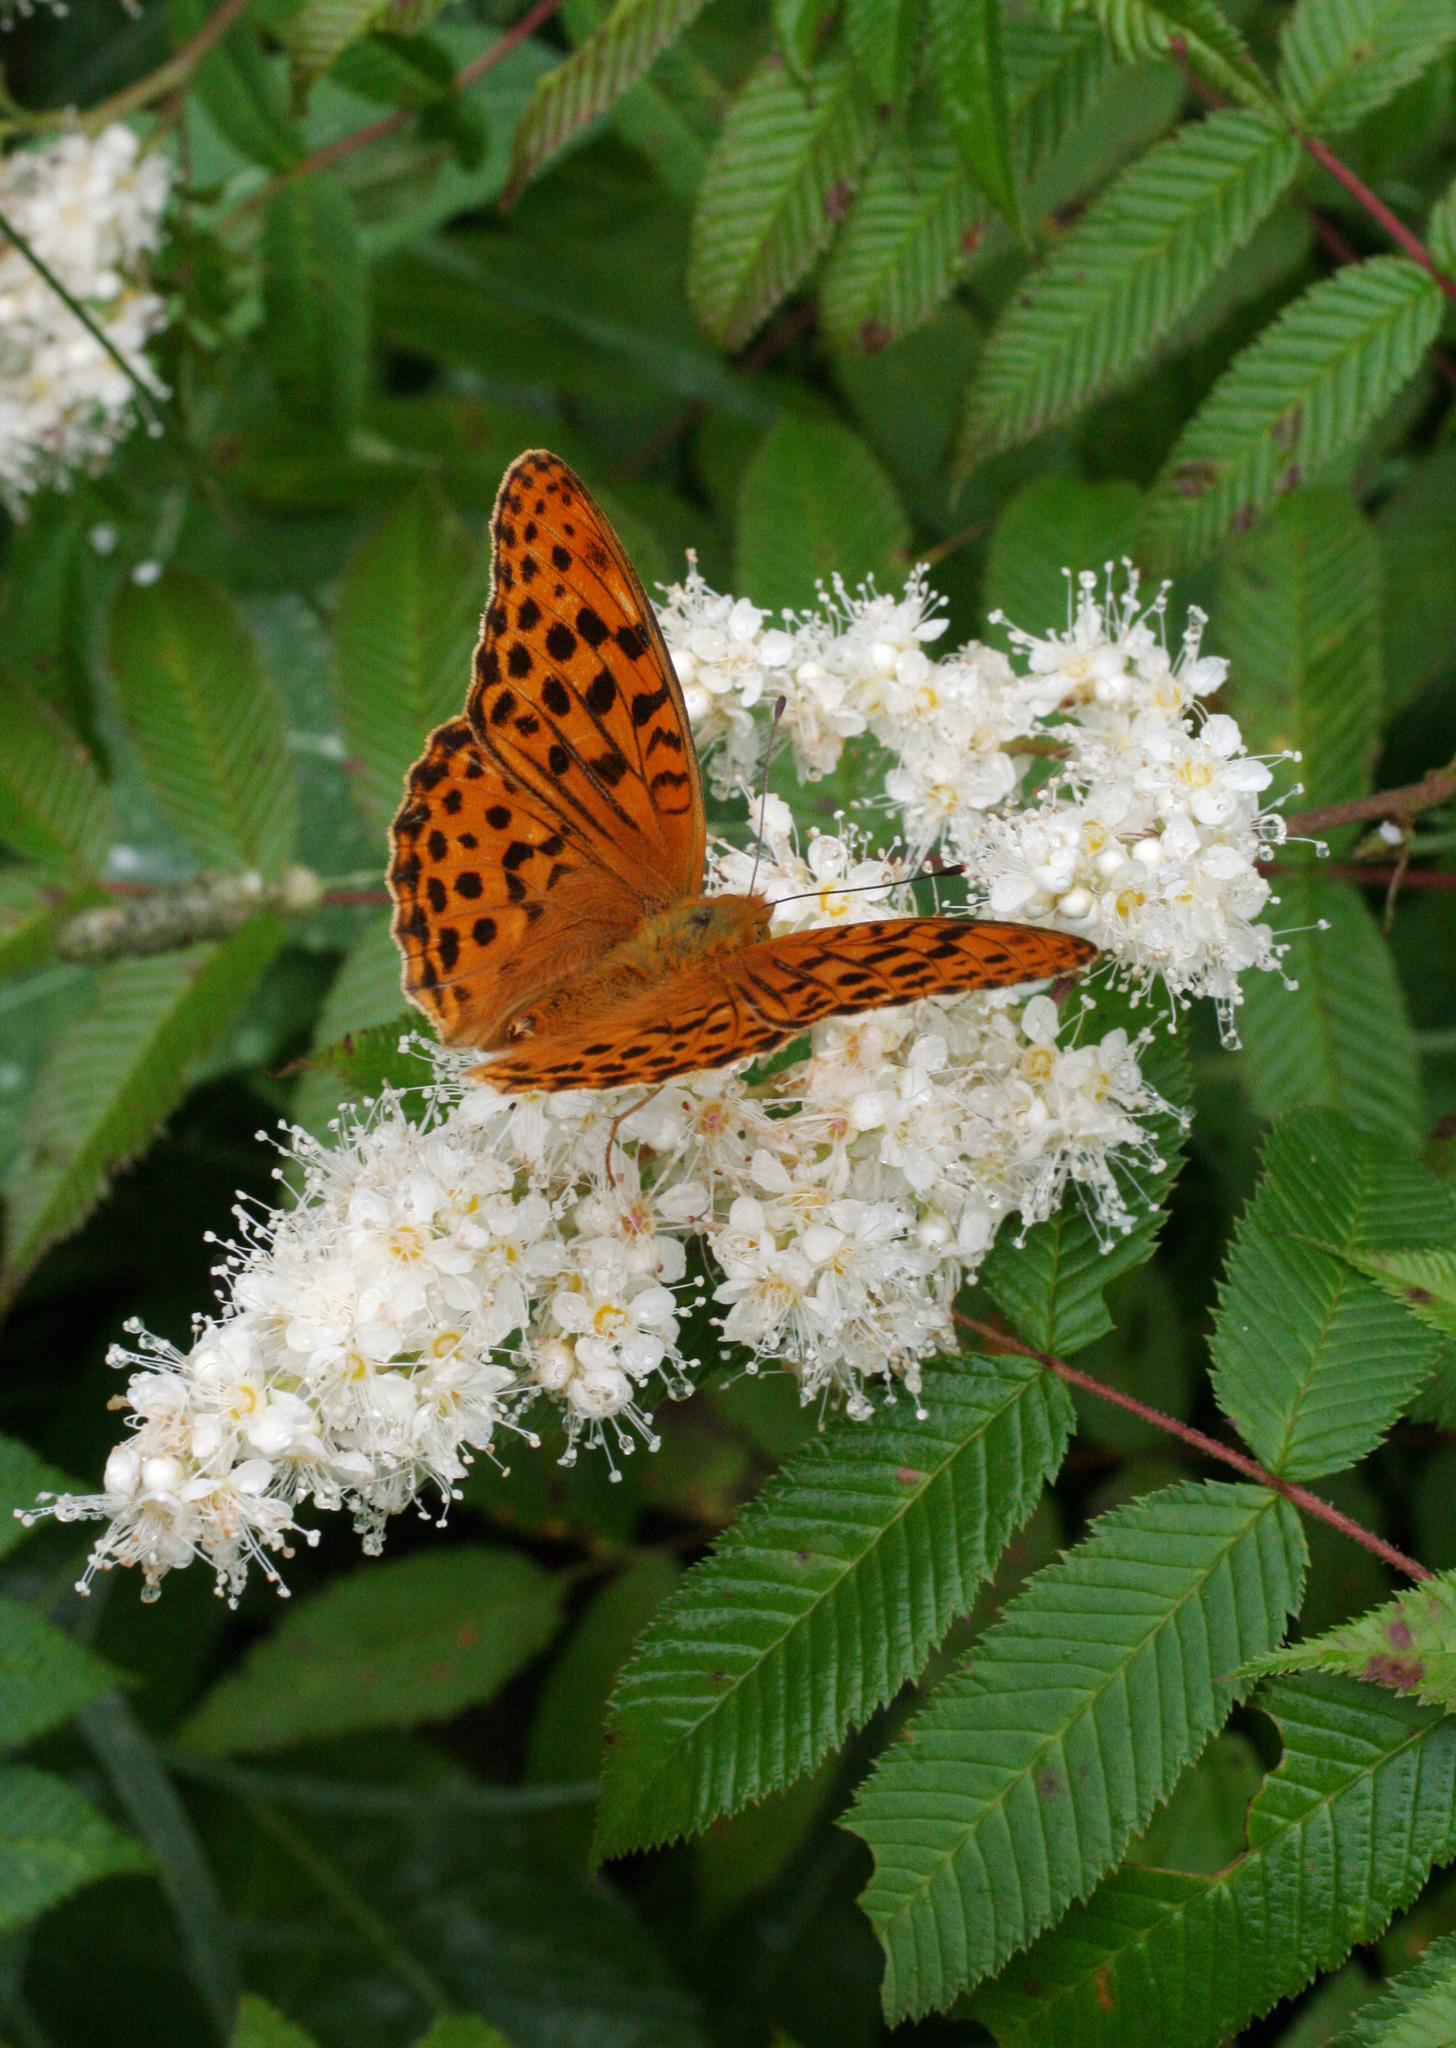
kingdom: Animalia
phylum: Arthropoda
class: Insecta
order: Lepidoptera
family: Nymphalidae
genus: Argyronome
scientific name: Argyronome ruslana
